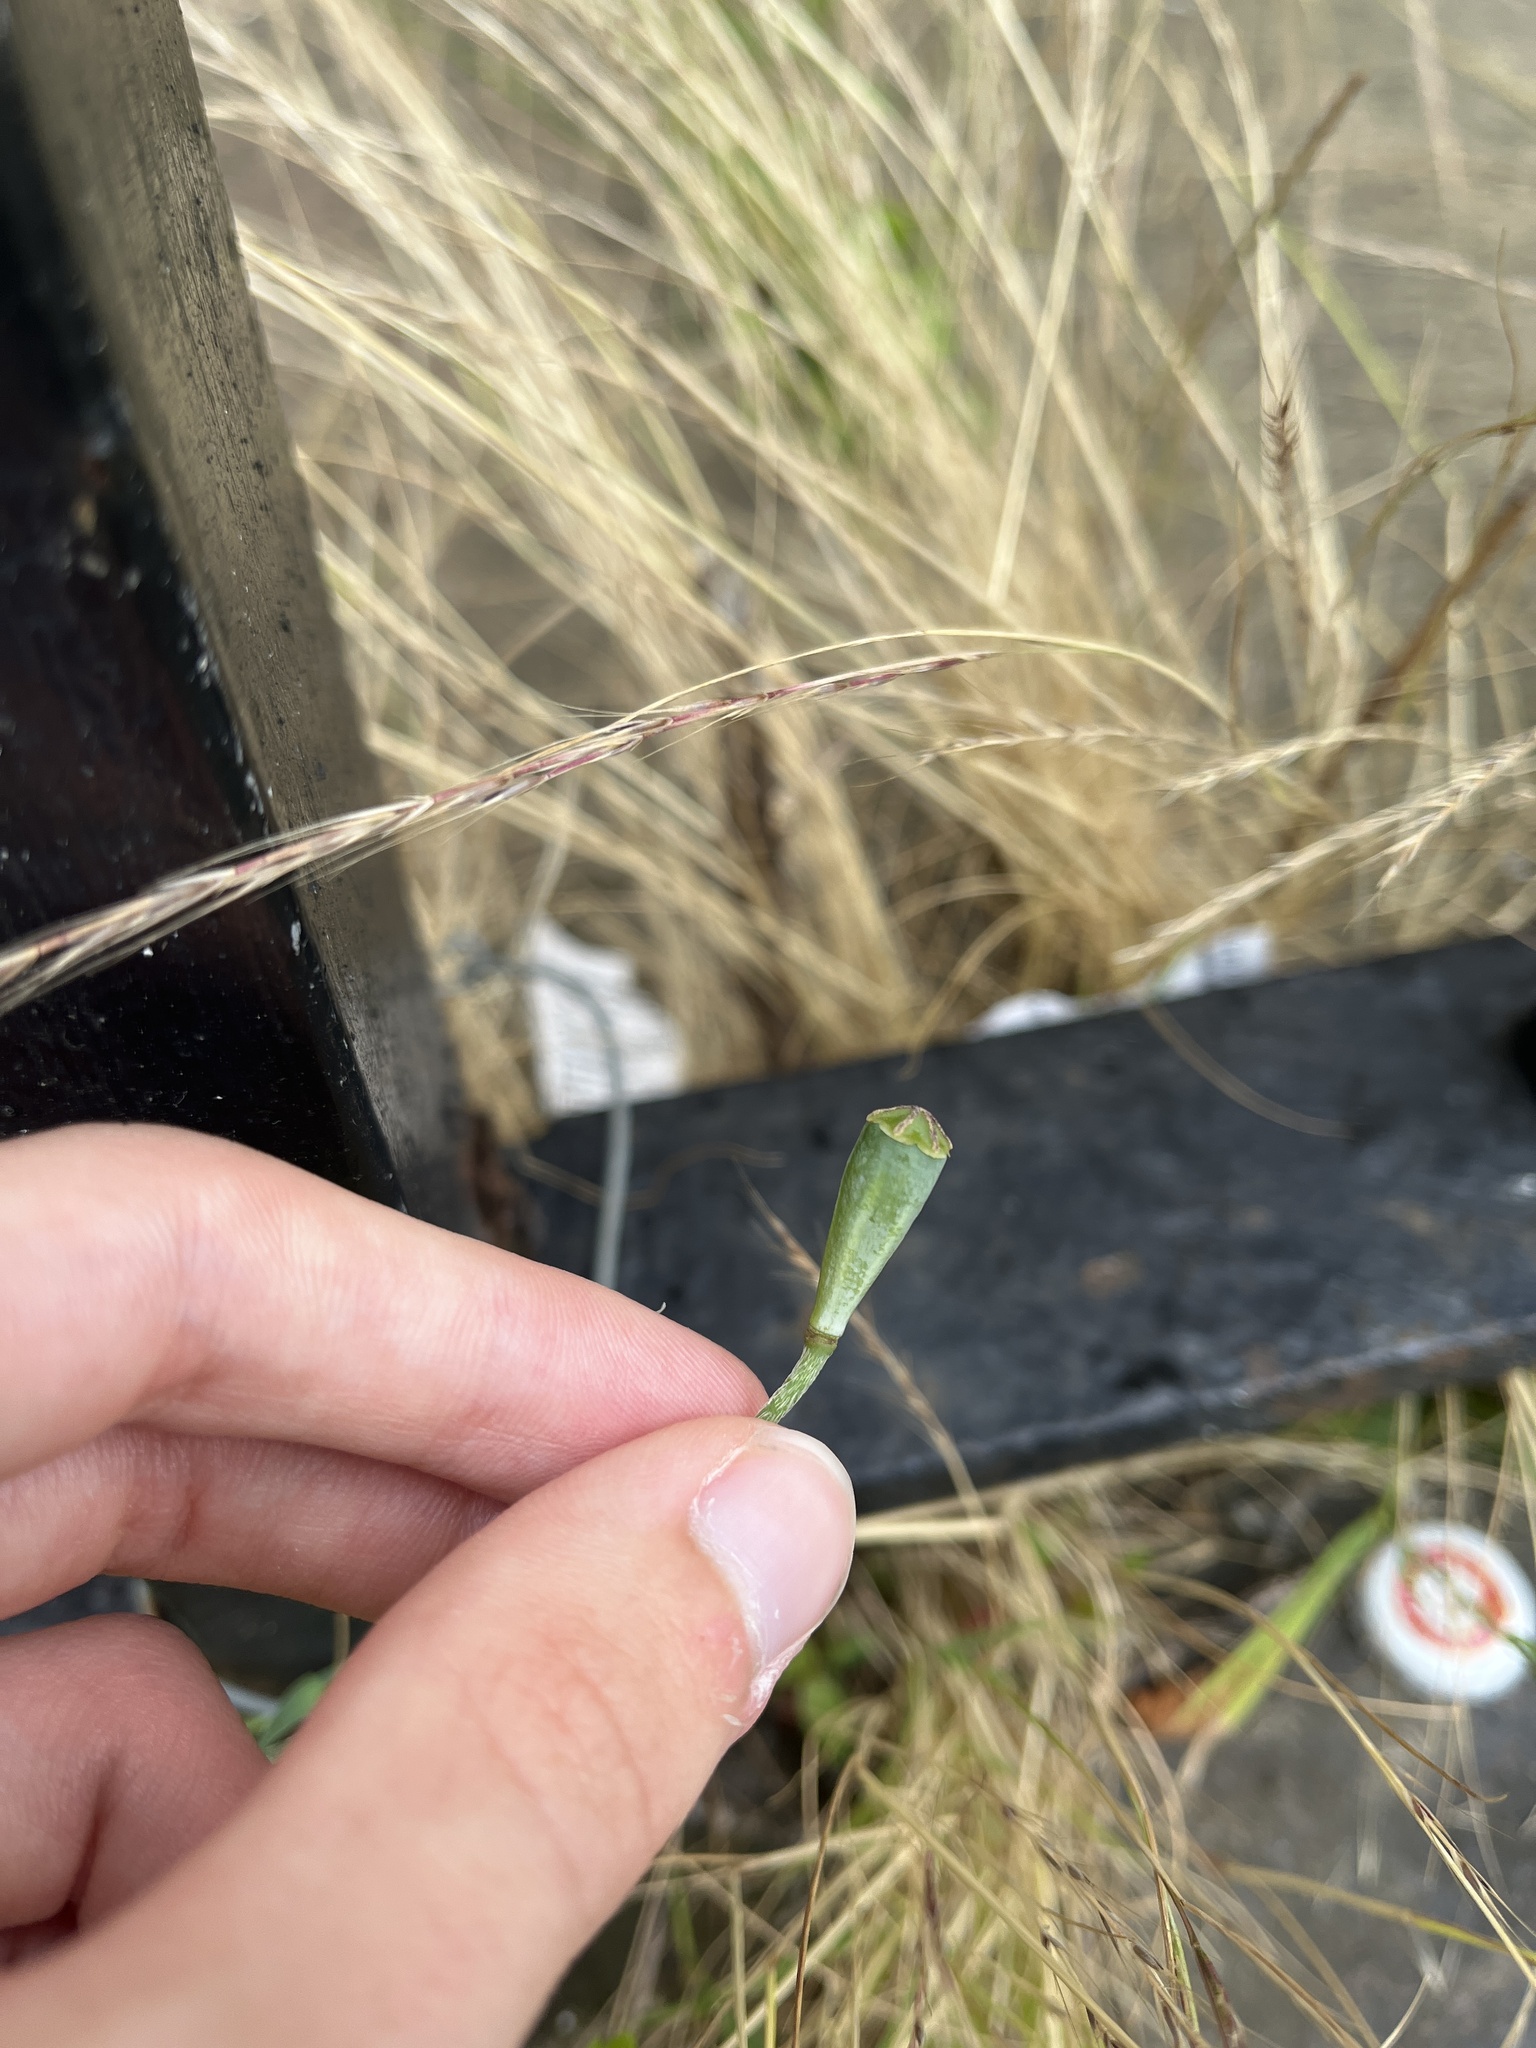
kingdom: Plantae
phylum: Tracheophyta
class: Magnoliopsida
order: Ranunculales
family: Papaveraceae
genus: Papaver
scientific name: Papaver dubium
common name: Long-headed poppy
